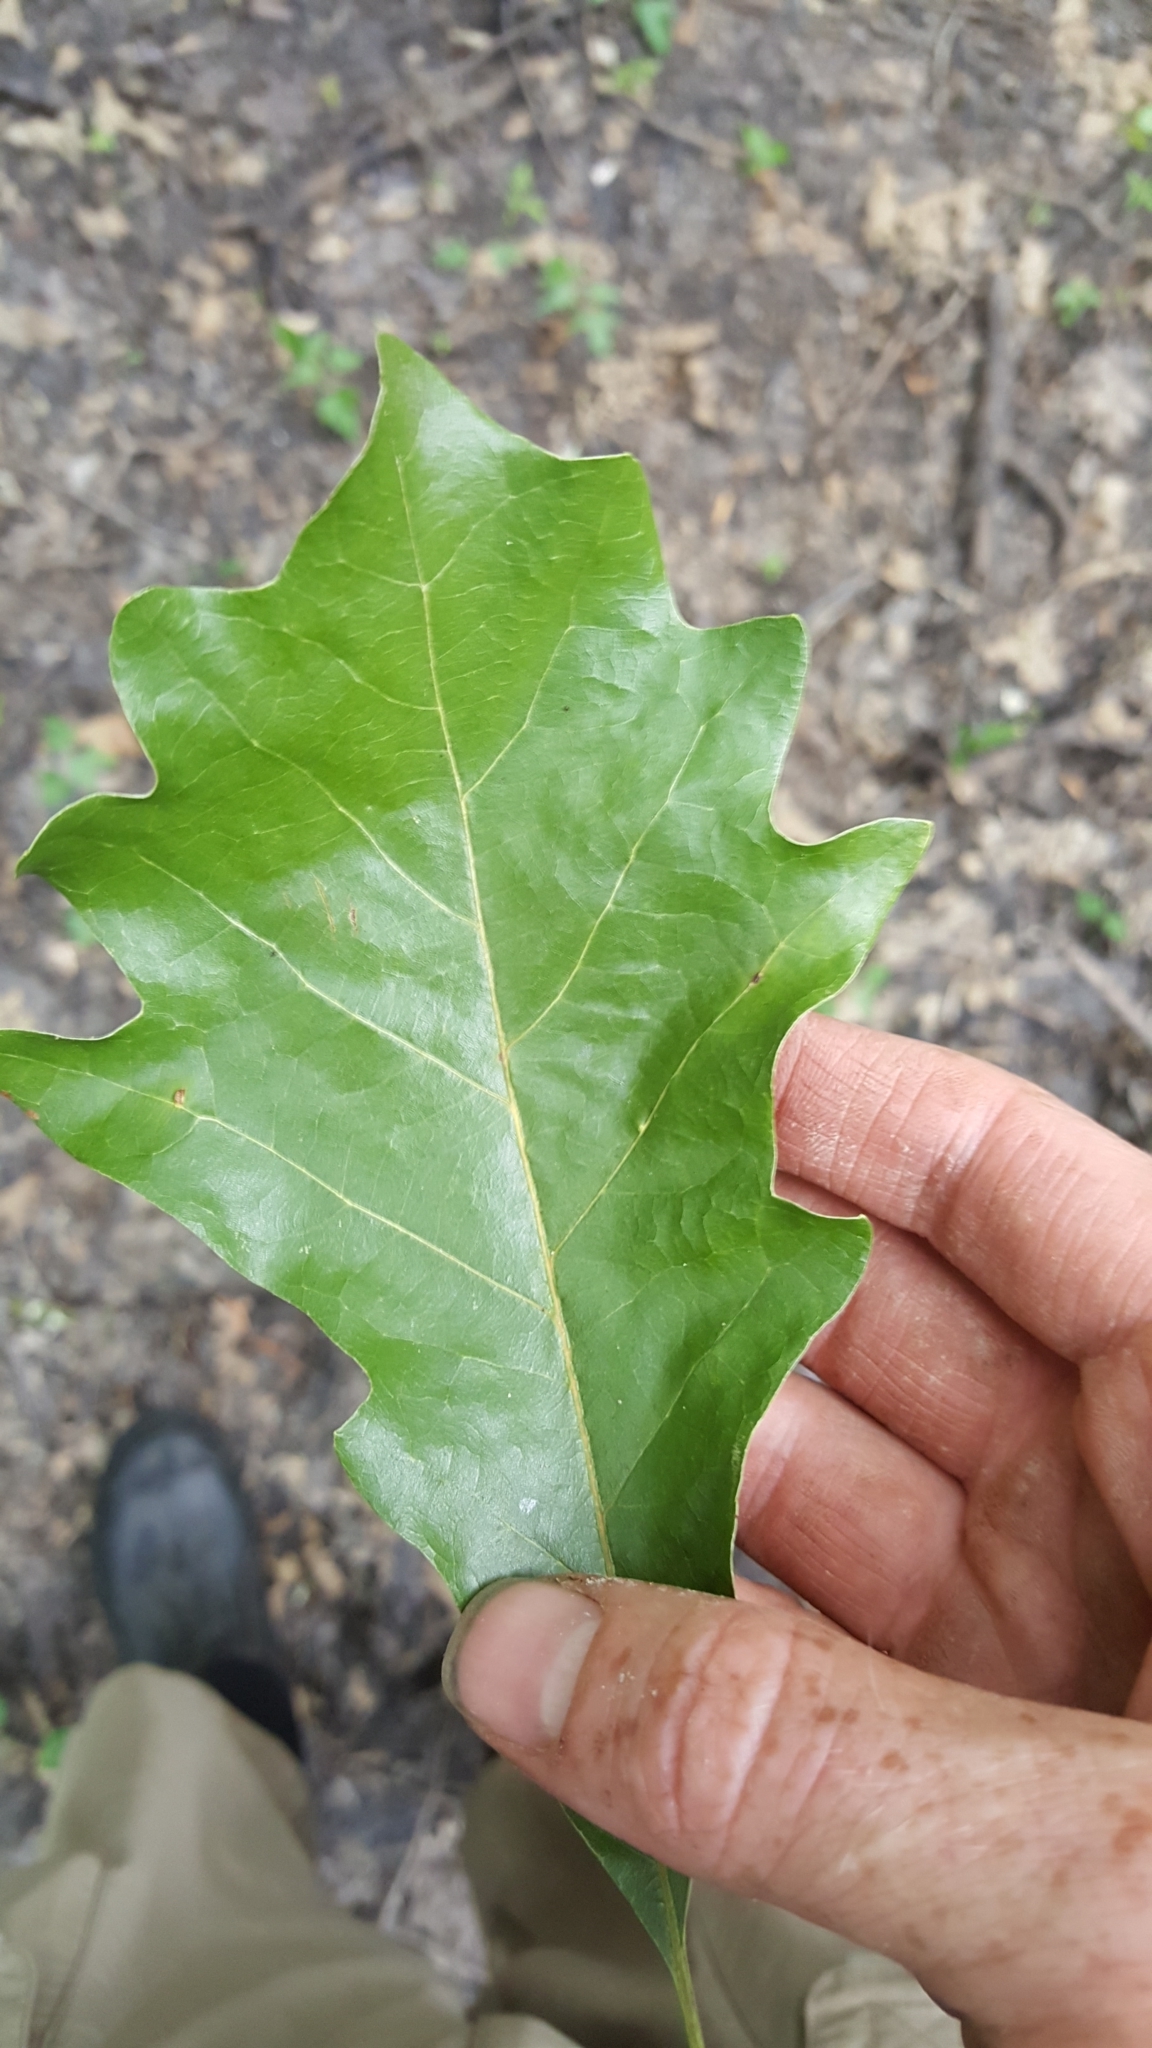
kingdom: Plantae
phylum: Tracheophyta
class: Magnoliopsida
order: Fagales
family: Fagaceae
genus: Quercus
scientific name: Quercus bicolor
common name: Swamp white oak
